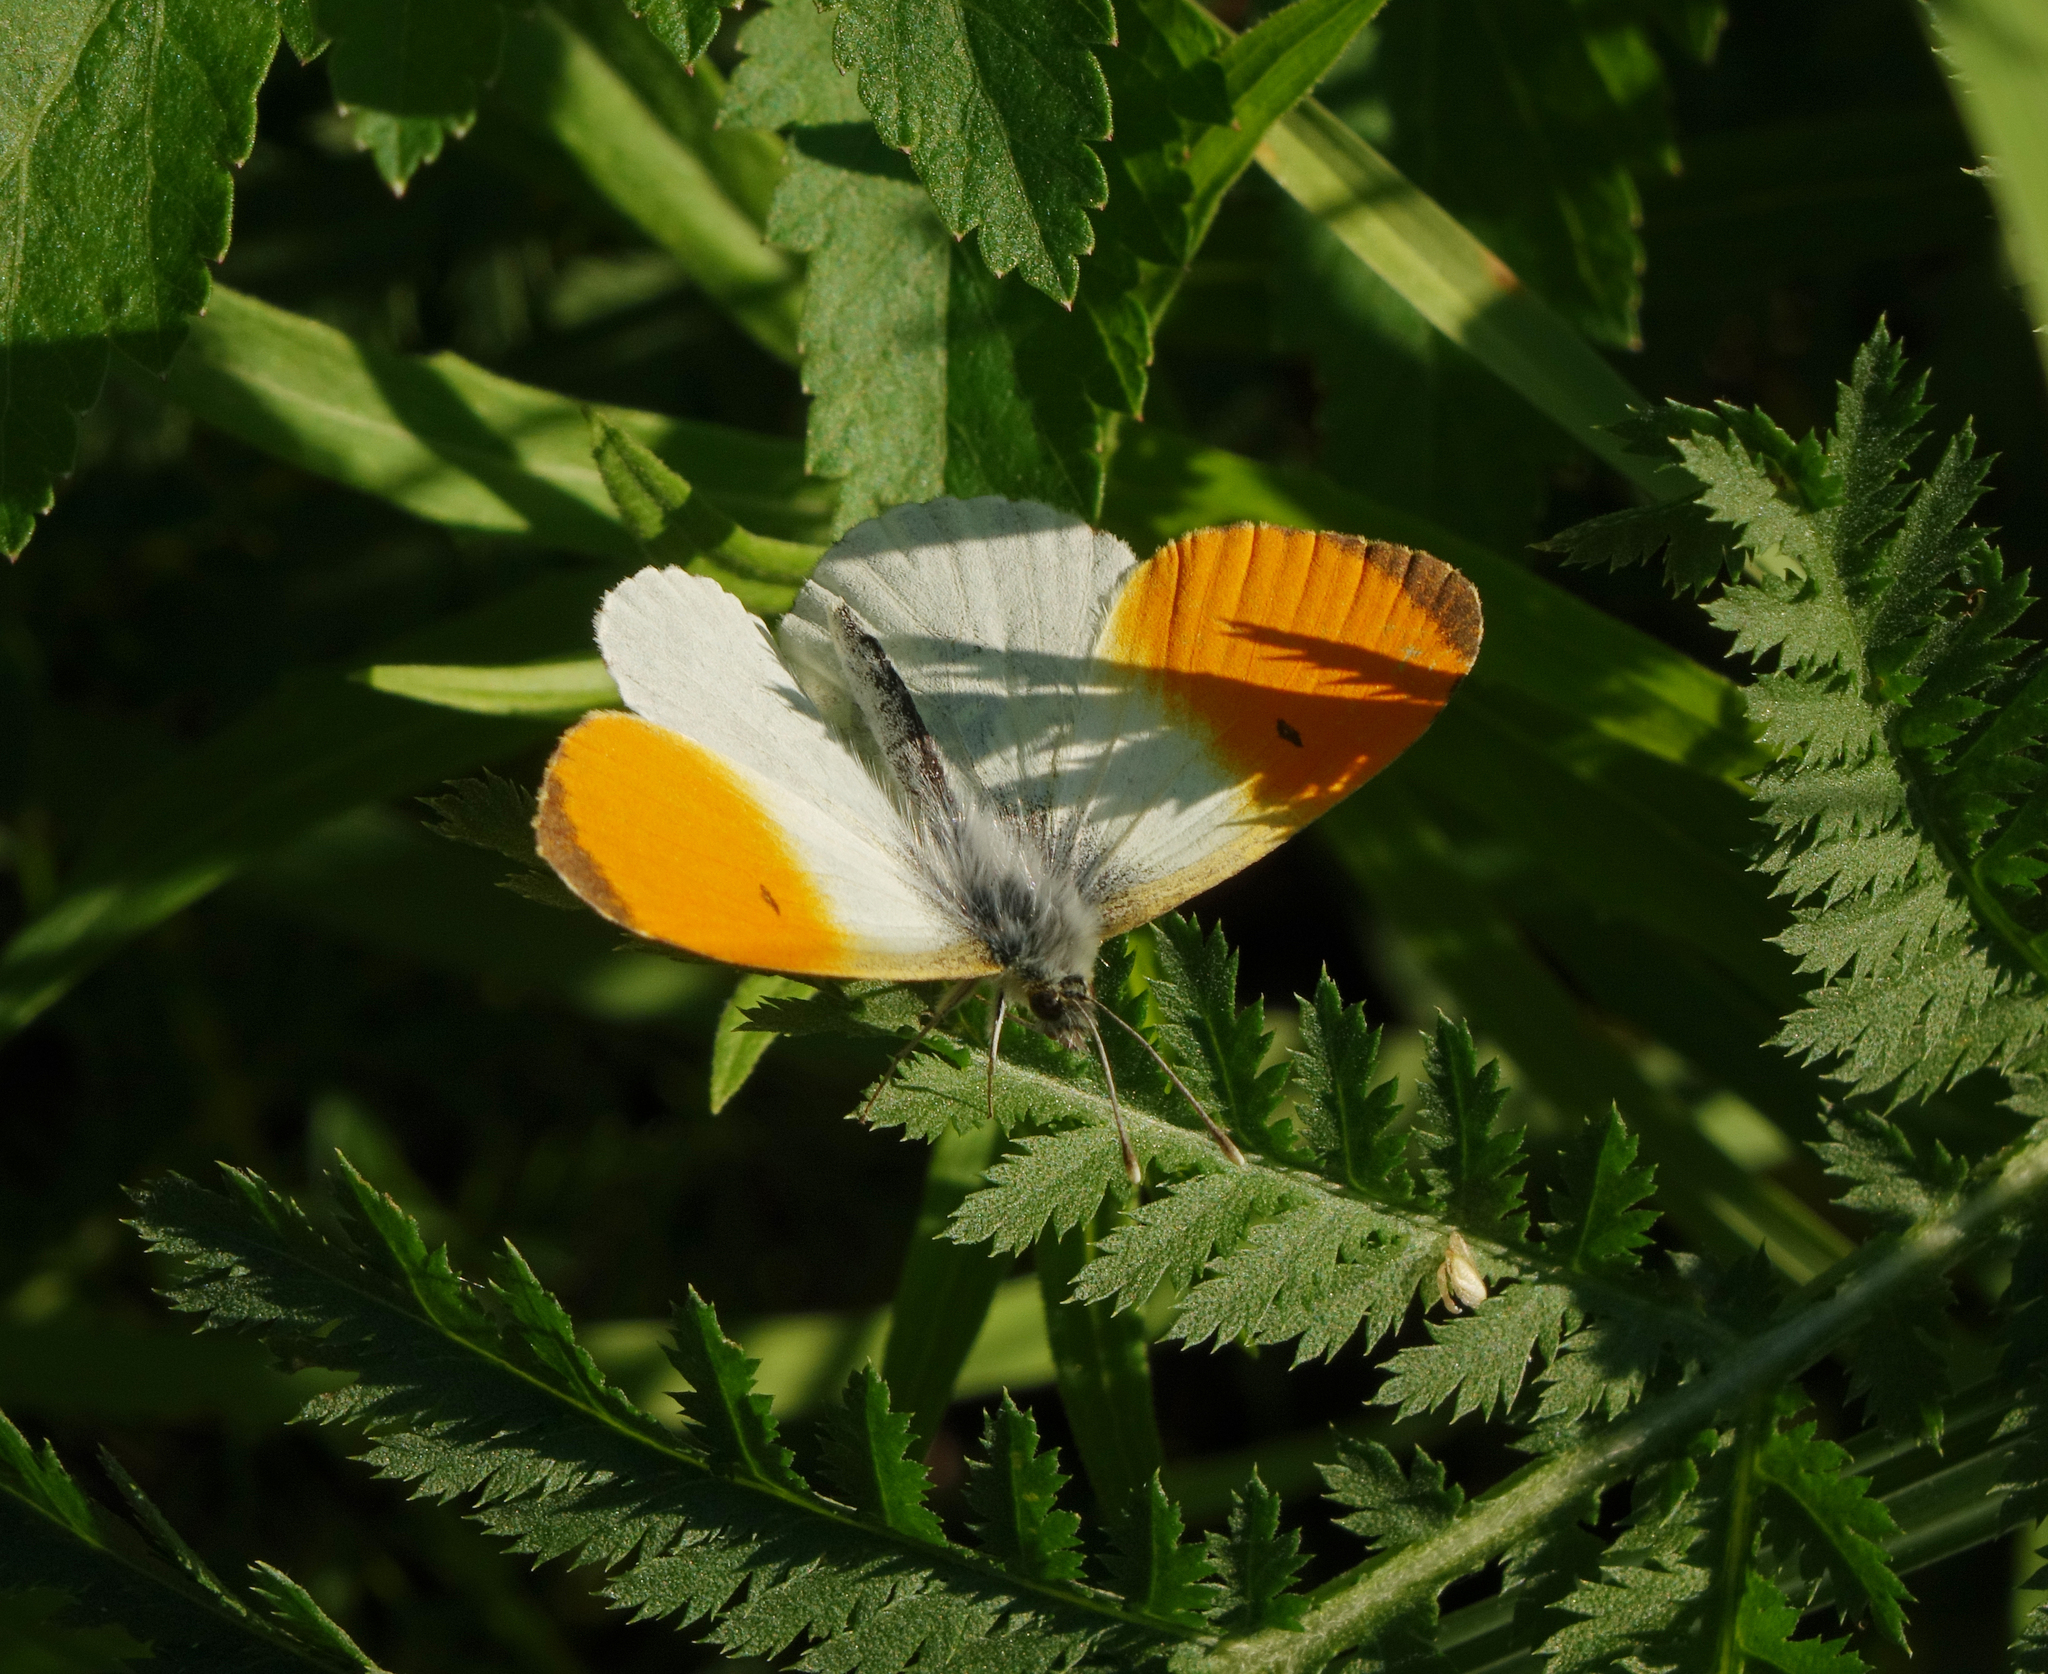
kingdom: Animalia
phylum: Arthropoda
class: Insecta
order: Lepidoptera
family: Pieridae
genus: Anthocharis
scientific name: Anthocharis cardamines
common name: Orange-tip
